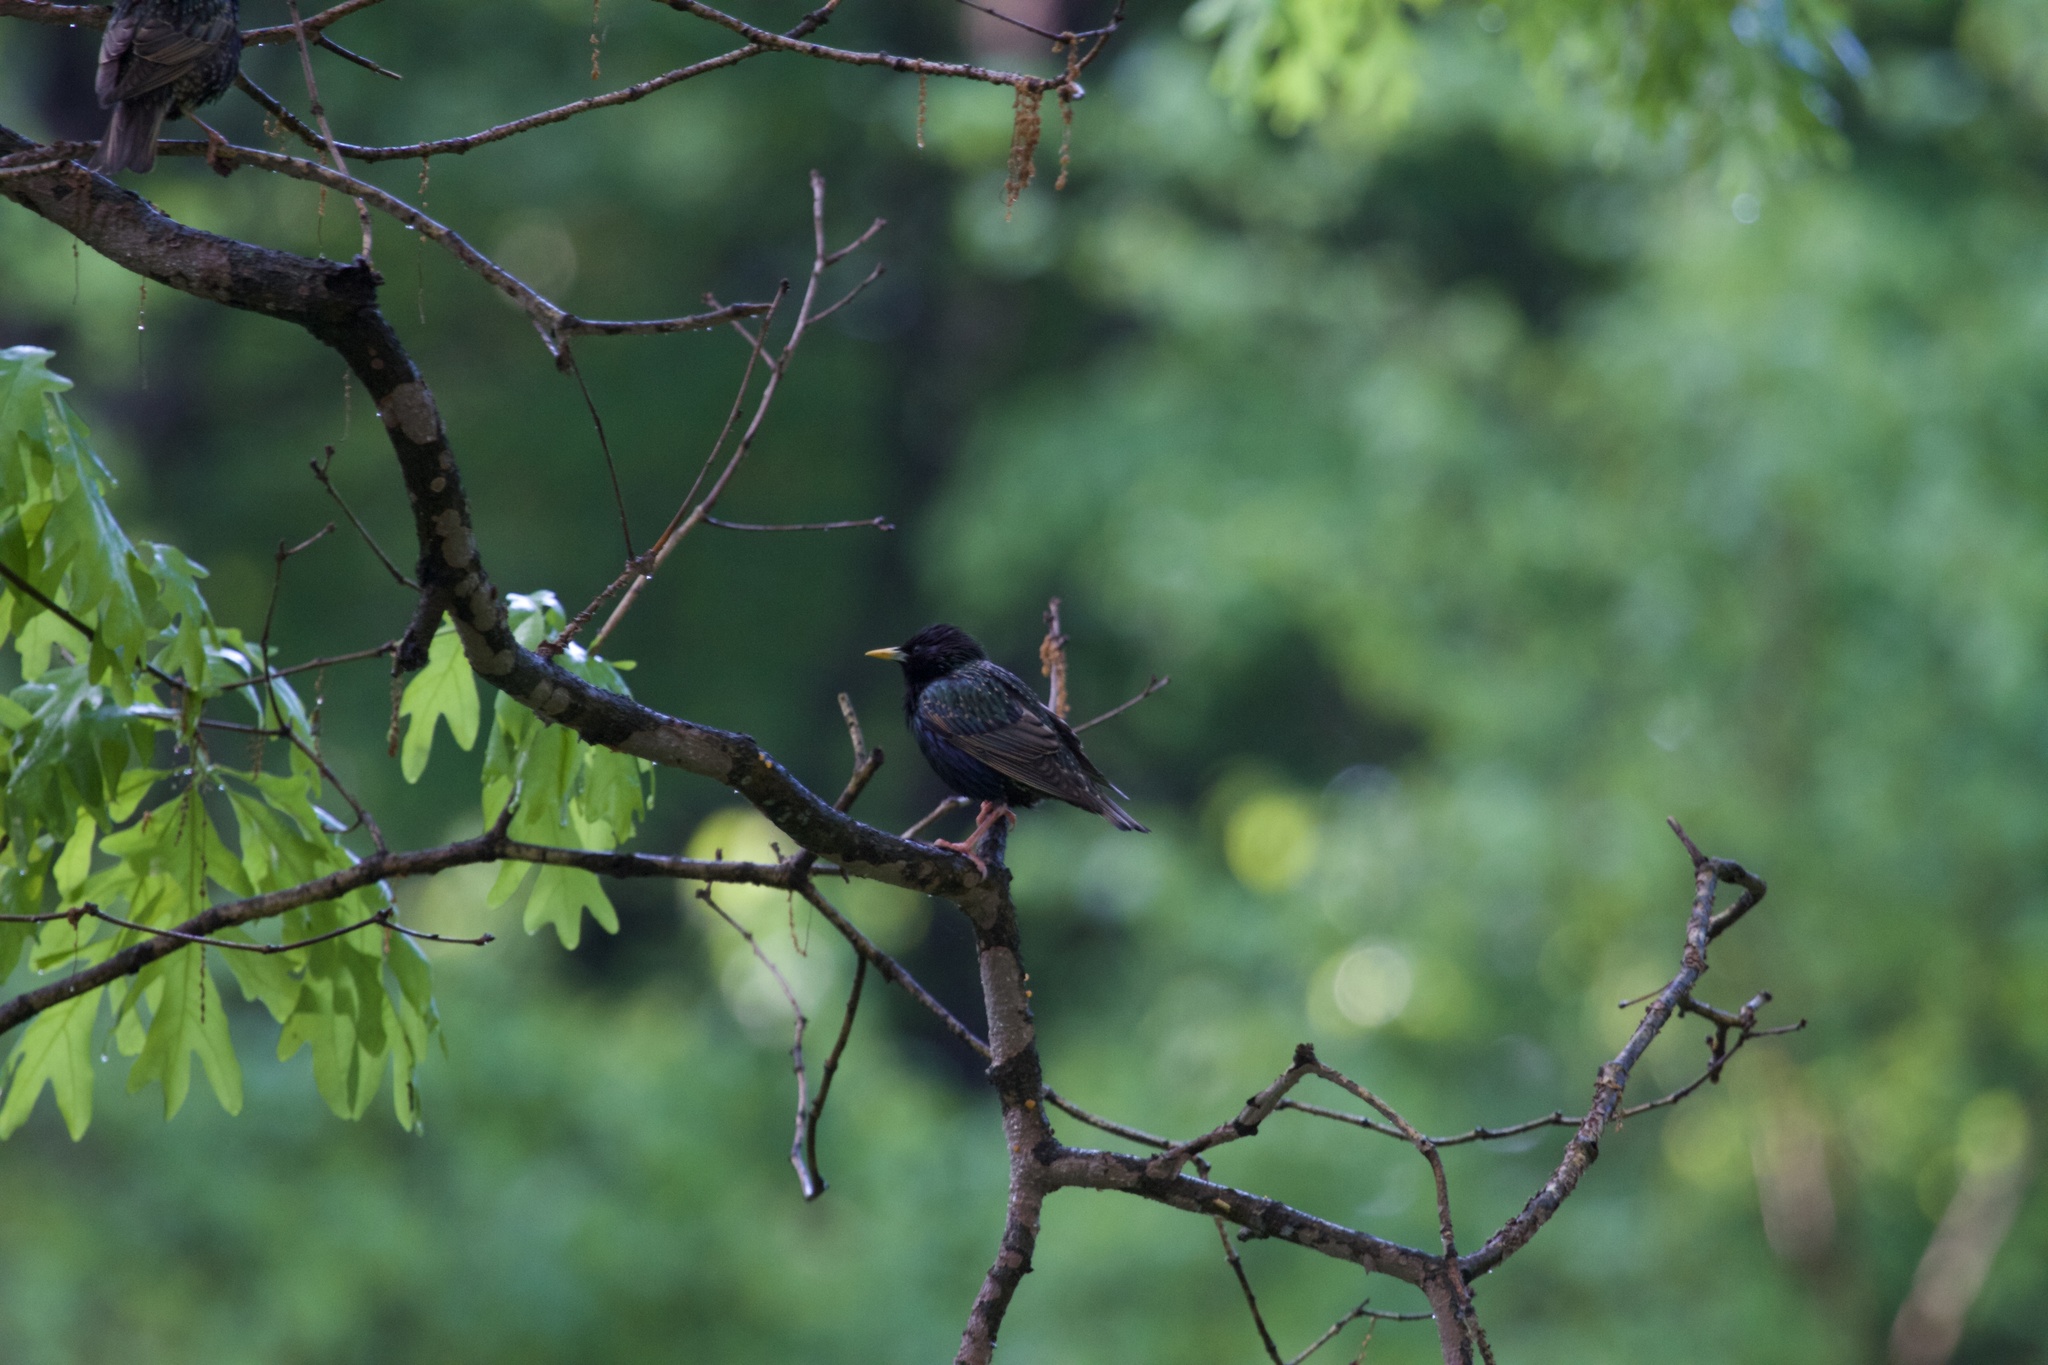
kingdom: Animalia
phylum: Chordata
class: Aves
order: Passeriformes
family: Sturnidae
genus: Sturnus
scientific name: Sturnus vulgaris
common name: Common starling
